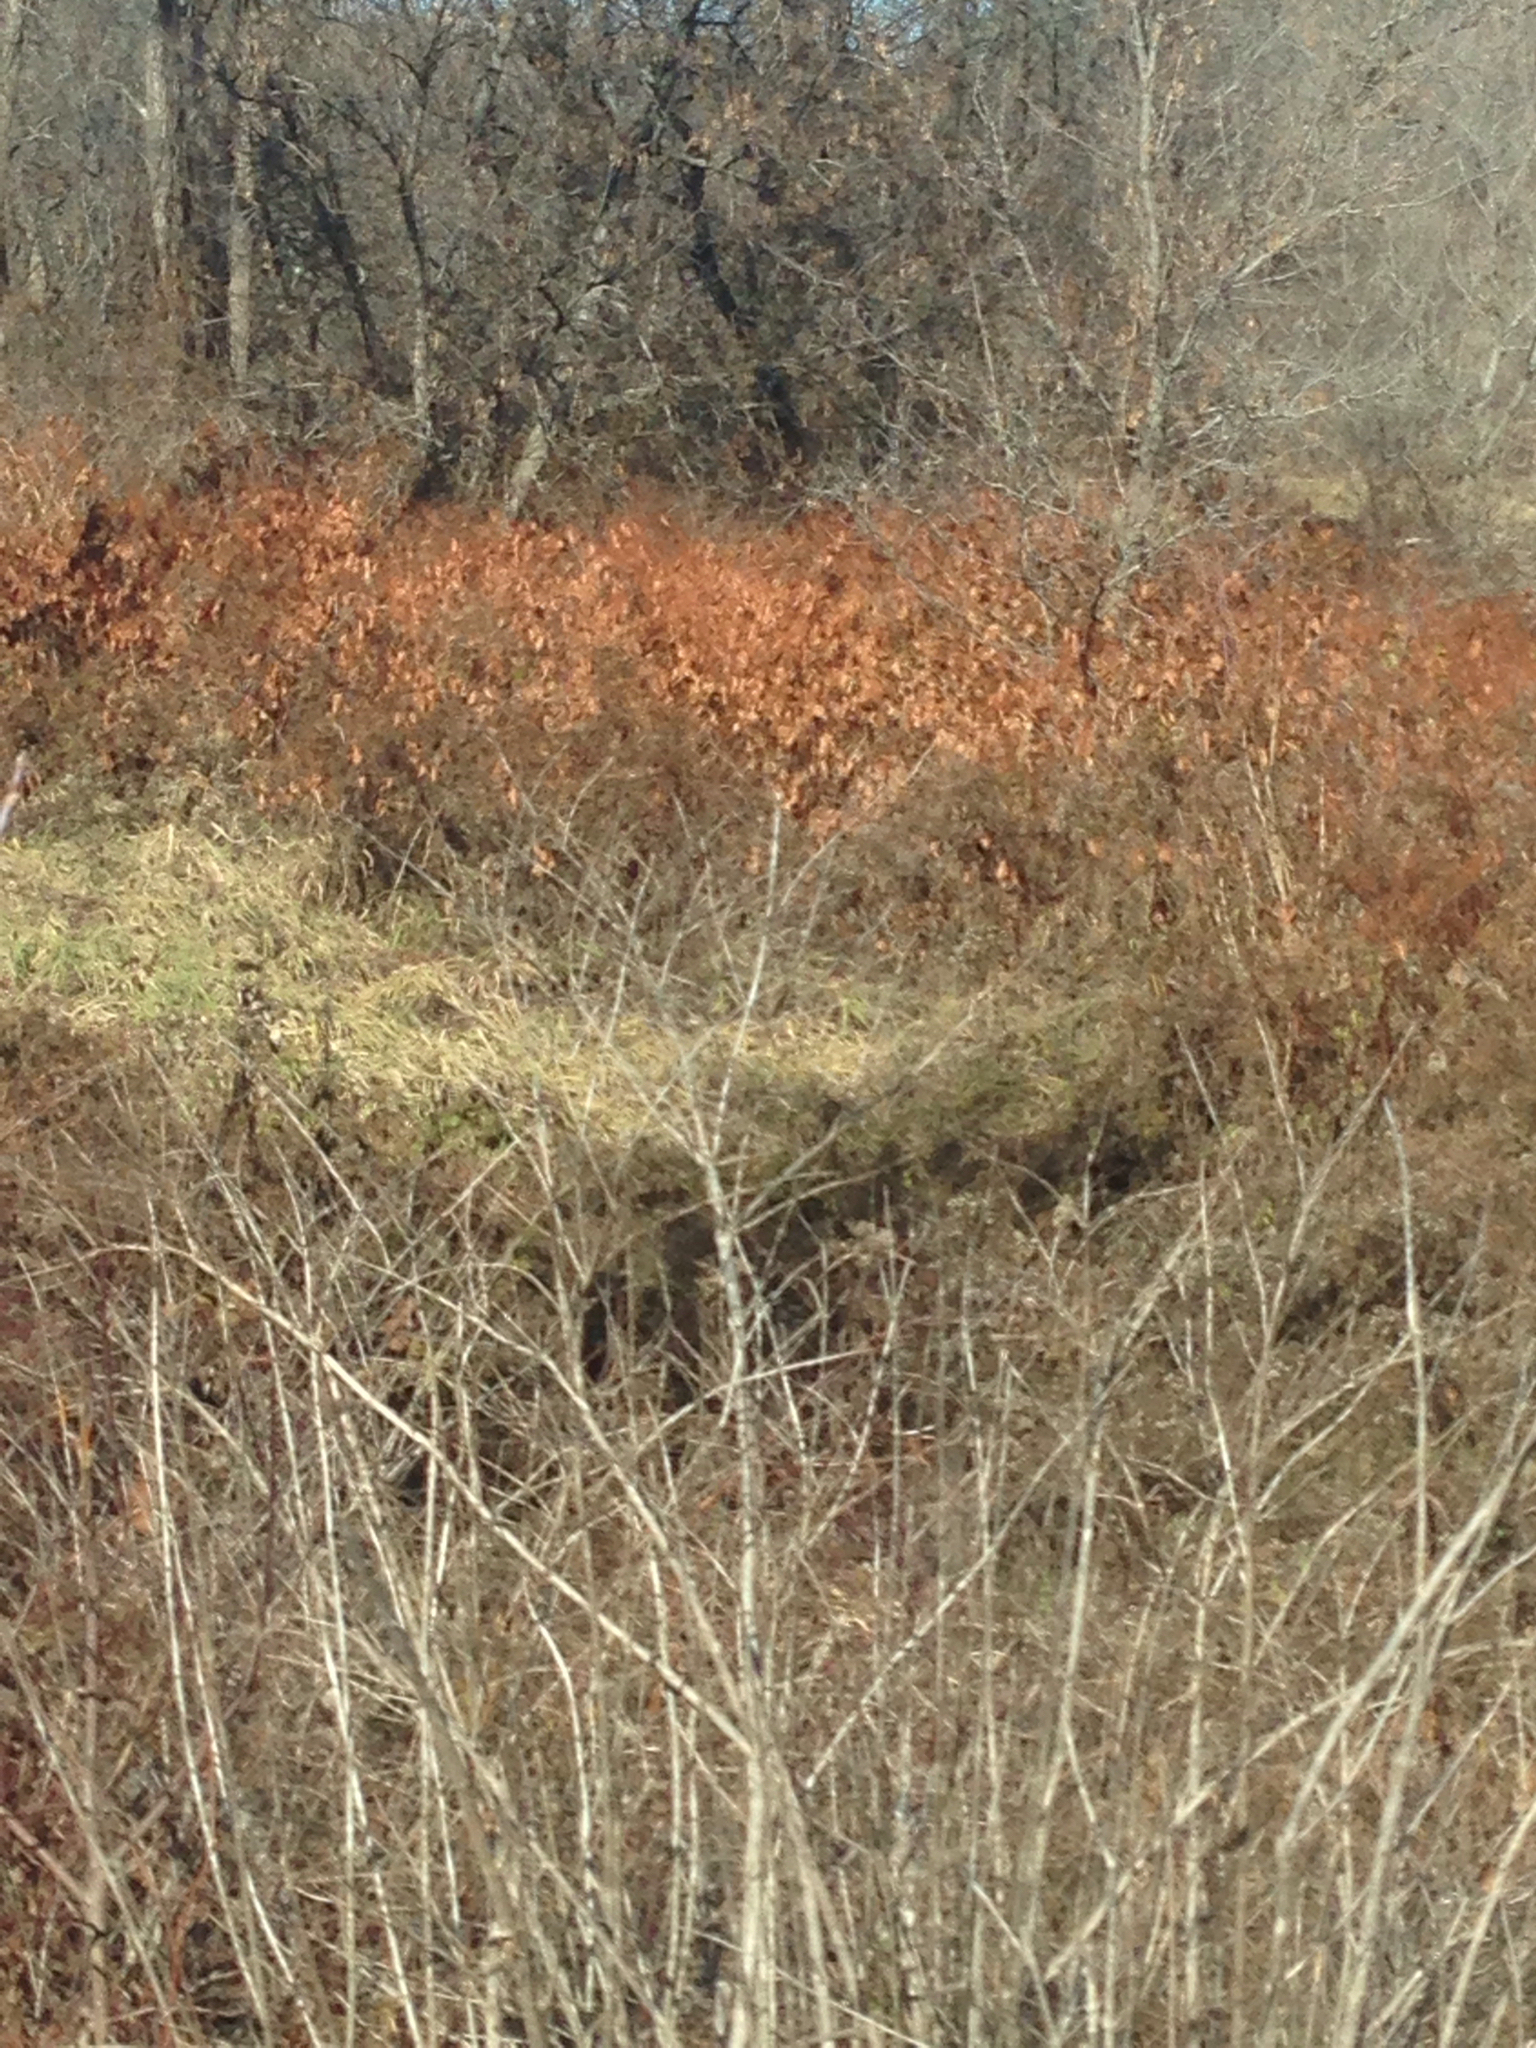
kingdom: Plantae
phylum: Tracheophyta
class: Magnoliopsida
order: Caryophyllales
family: Polygonaceae
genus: Reynoutria
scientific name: Reynoutria japonica
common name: Japanese knotweed
